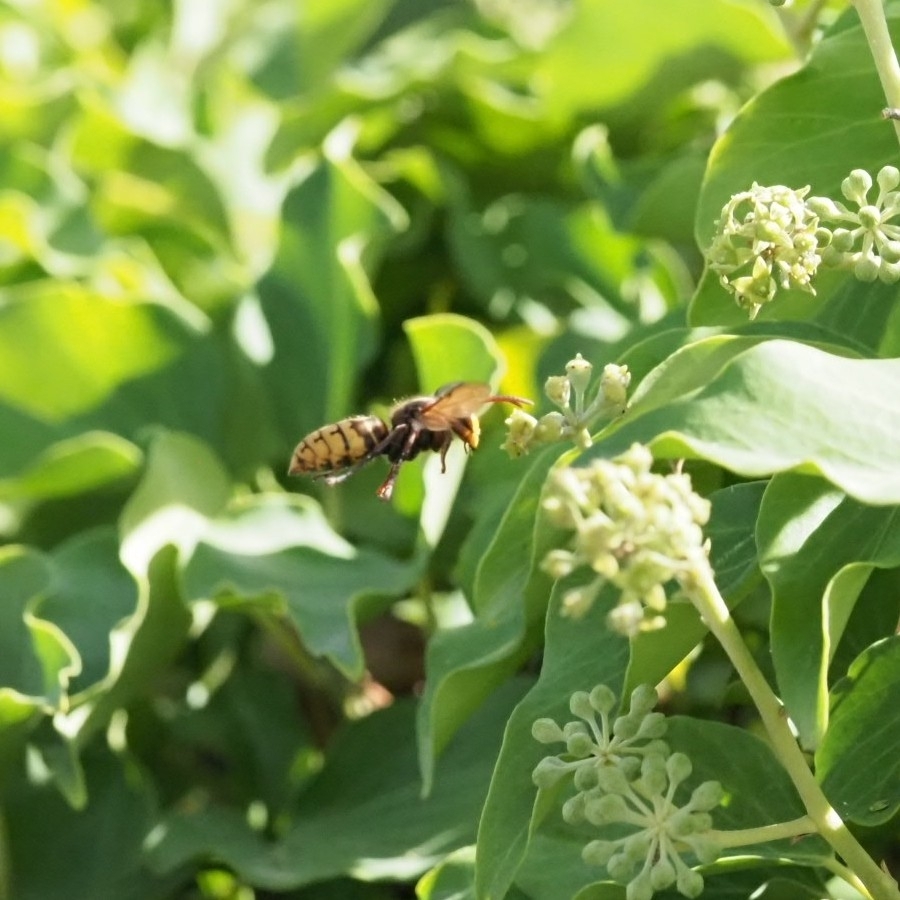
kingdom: Animalia
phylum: Arthropoda
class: Insecta
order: Hymenoptera
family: Vespidae
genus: Vespa
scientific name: Vespa crabro
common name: Hornet
